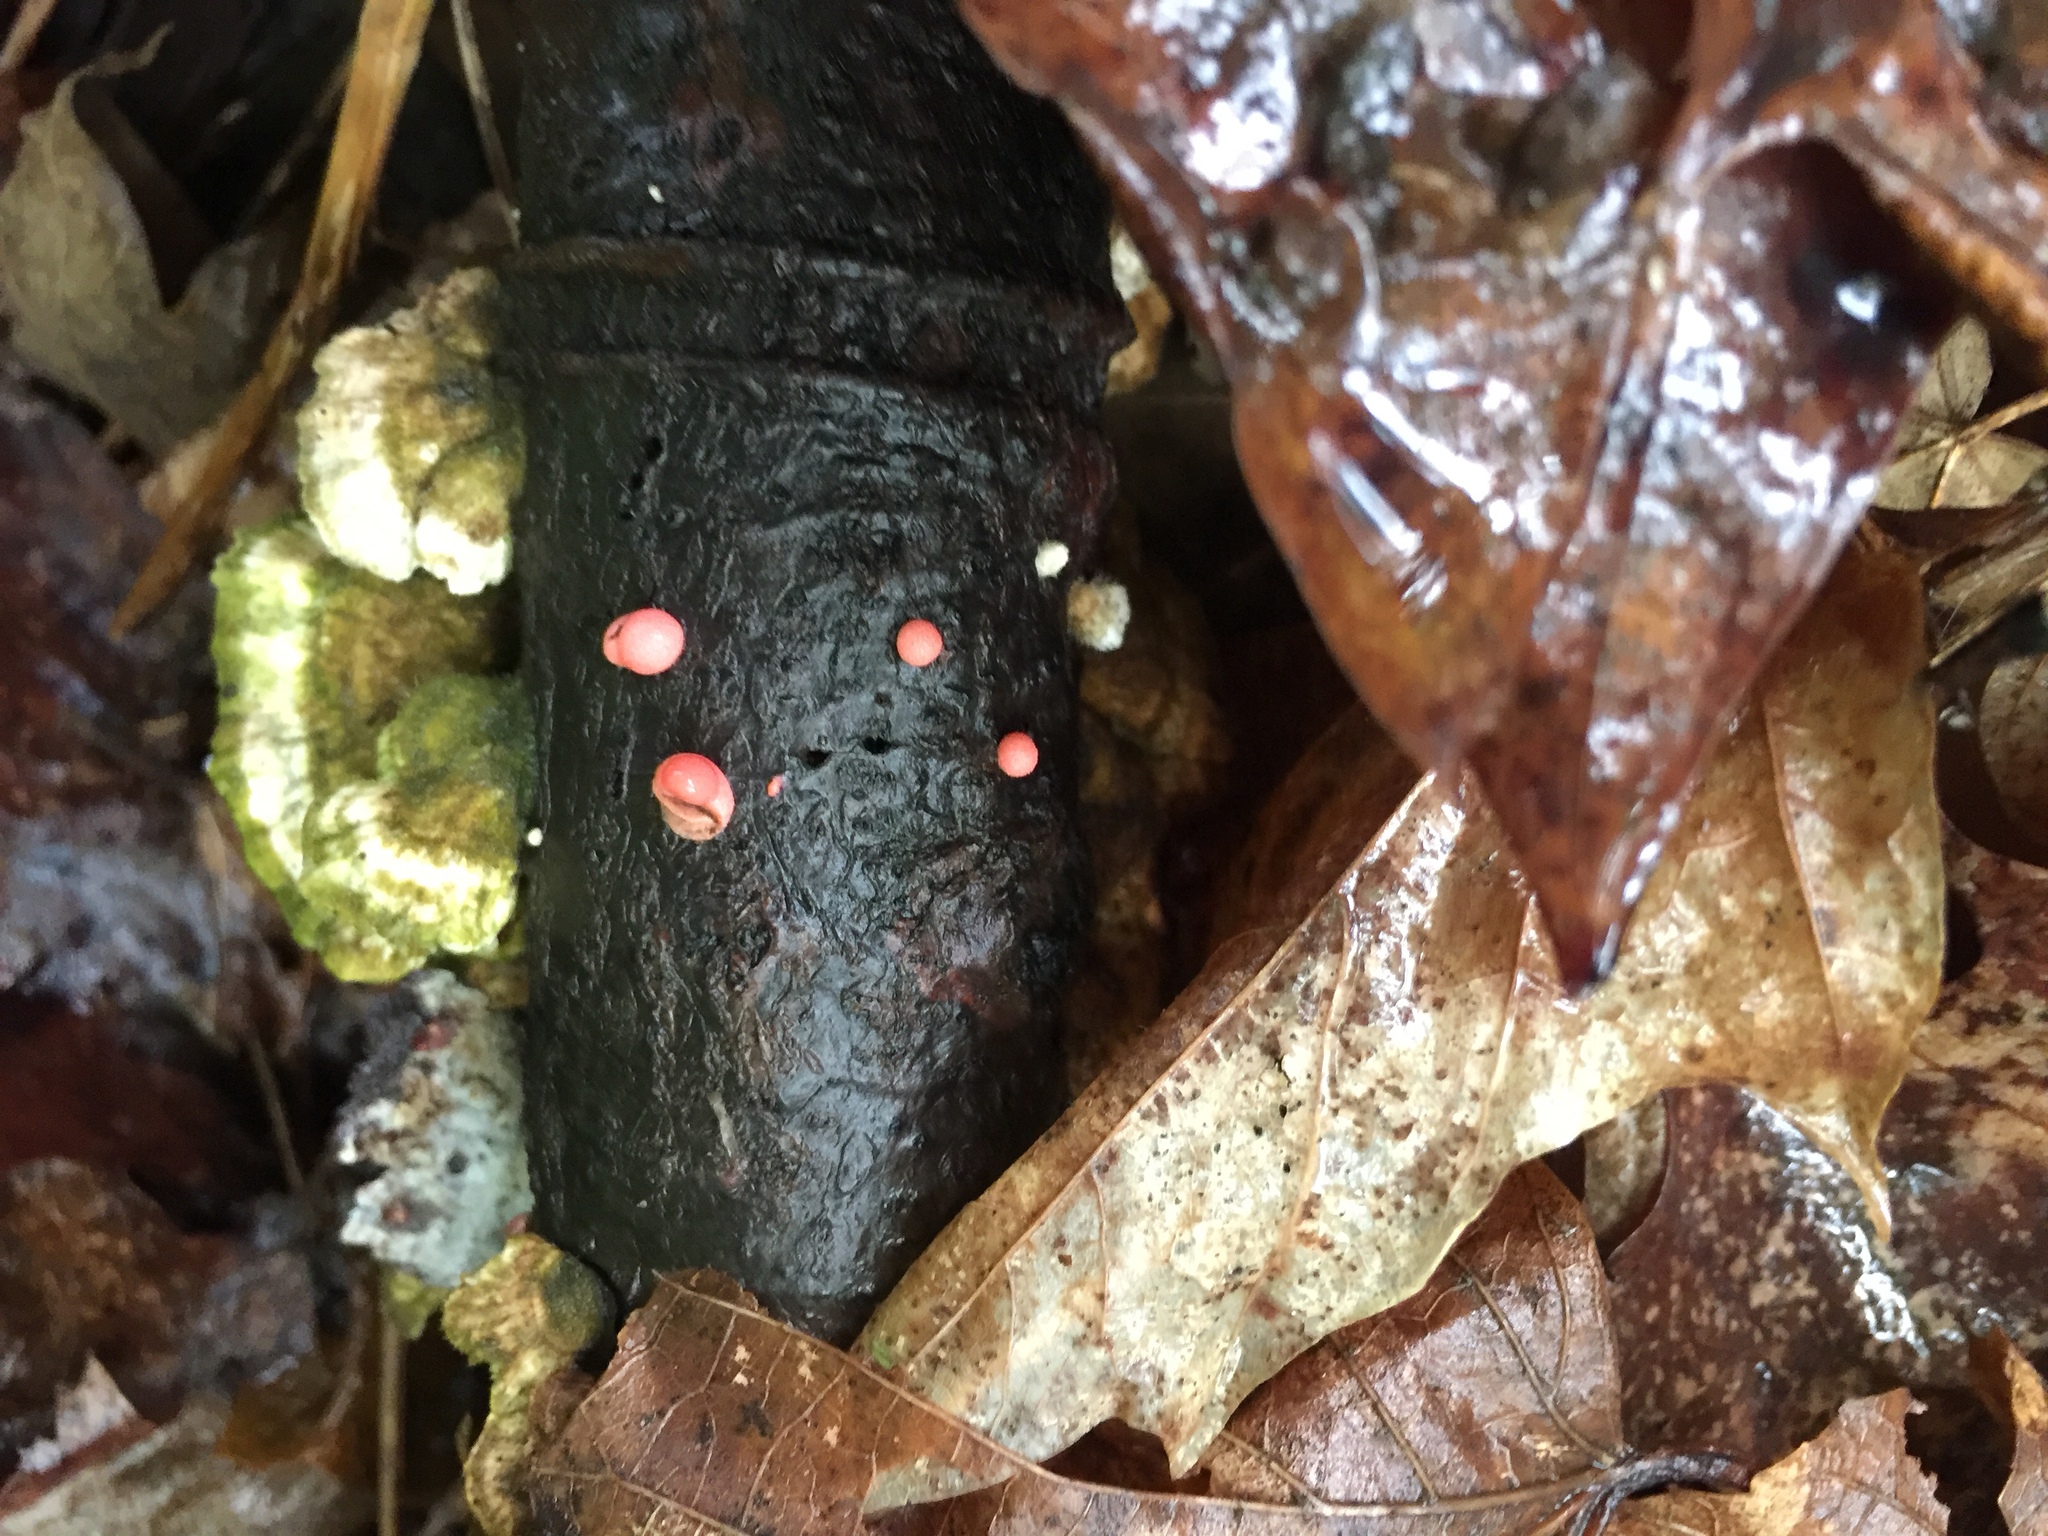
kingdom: Protozoa
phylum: Mycetozoa
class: Myxomycetes
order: Cribrariales
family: Tubiferaceae
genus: Lycogala
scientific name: Lycogala epidendrum
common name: Wolf's milk
